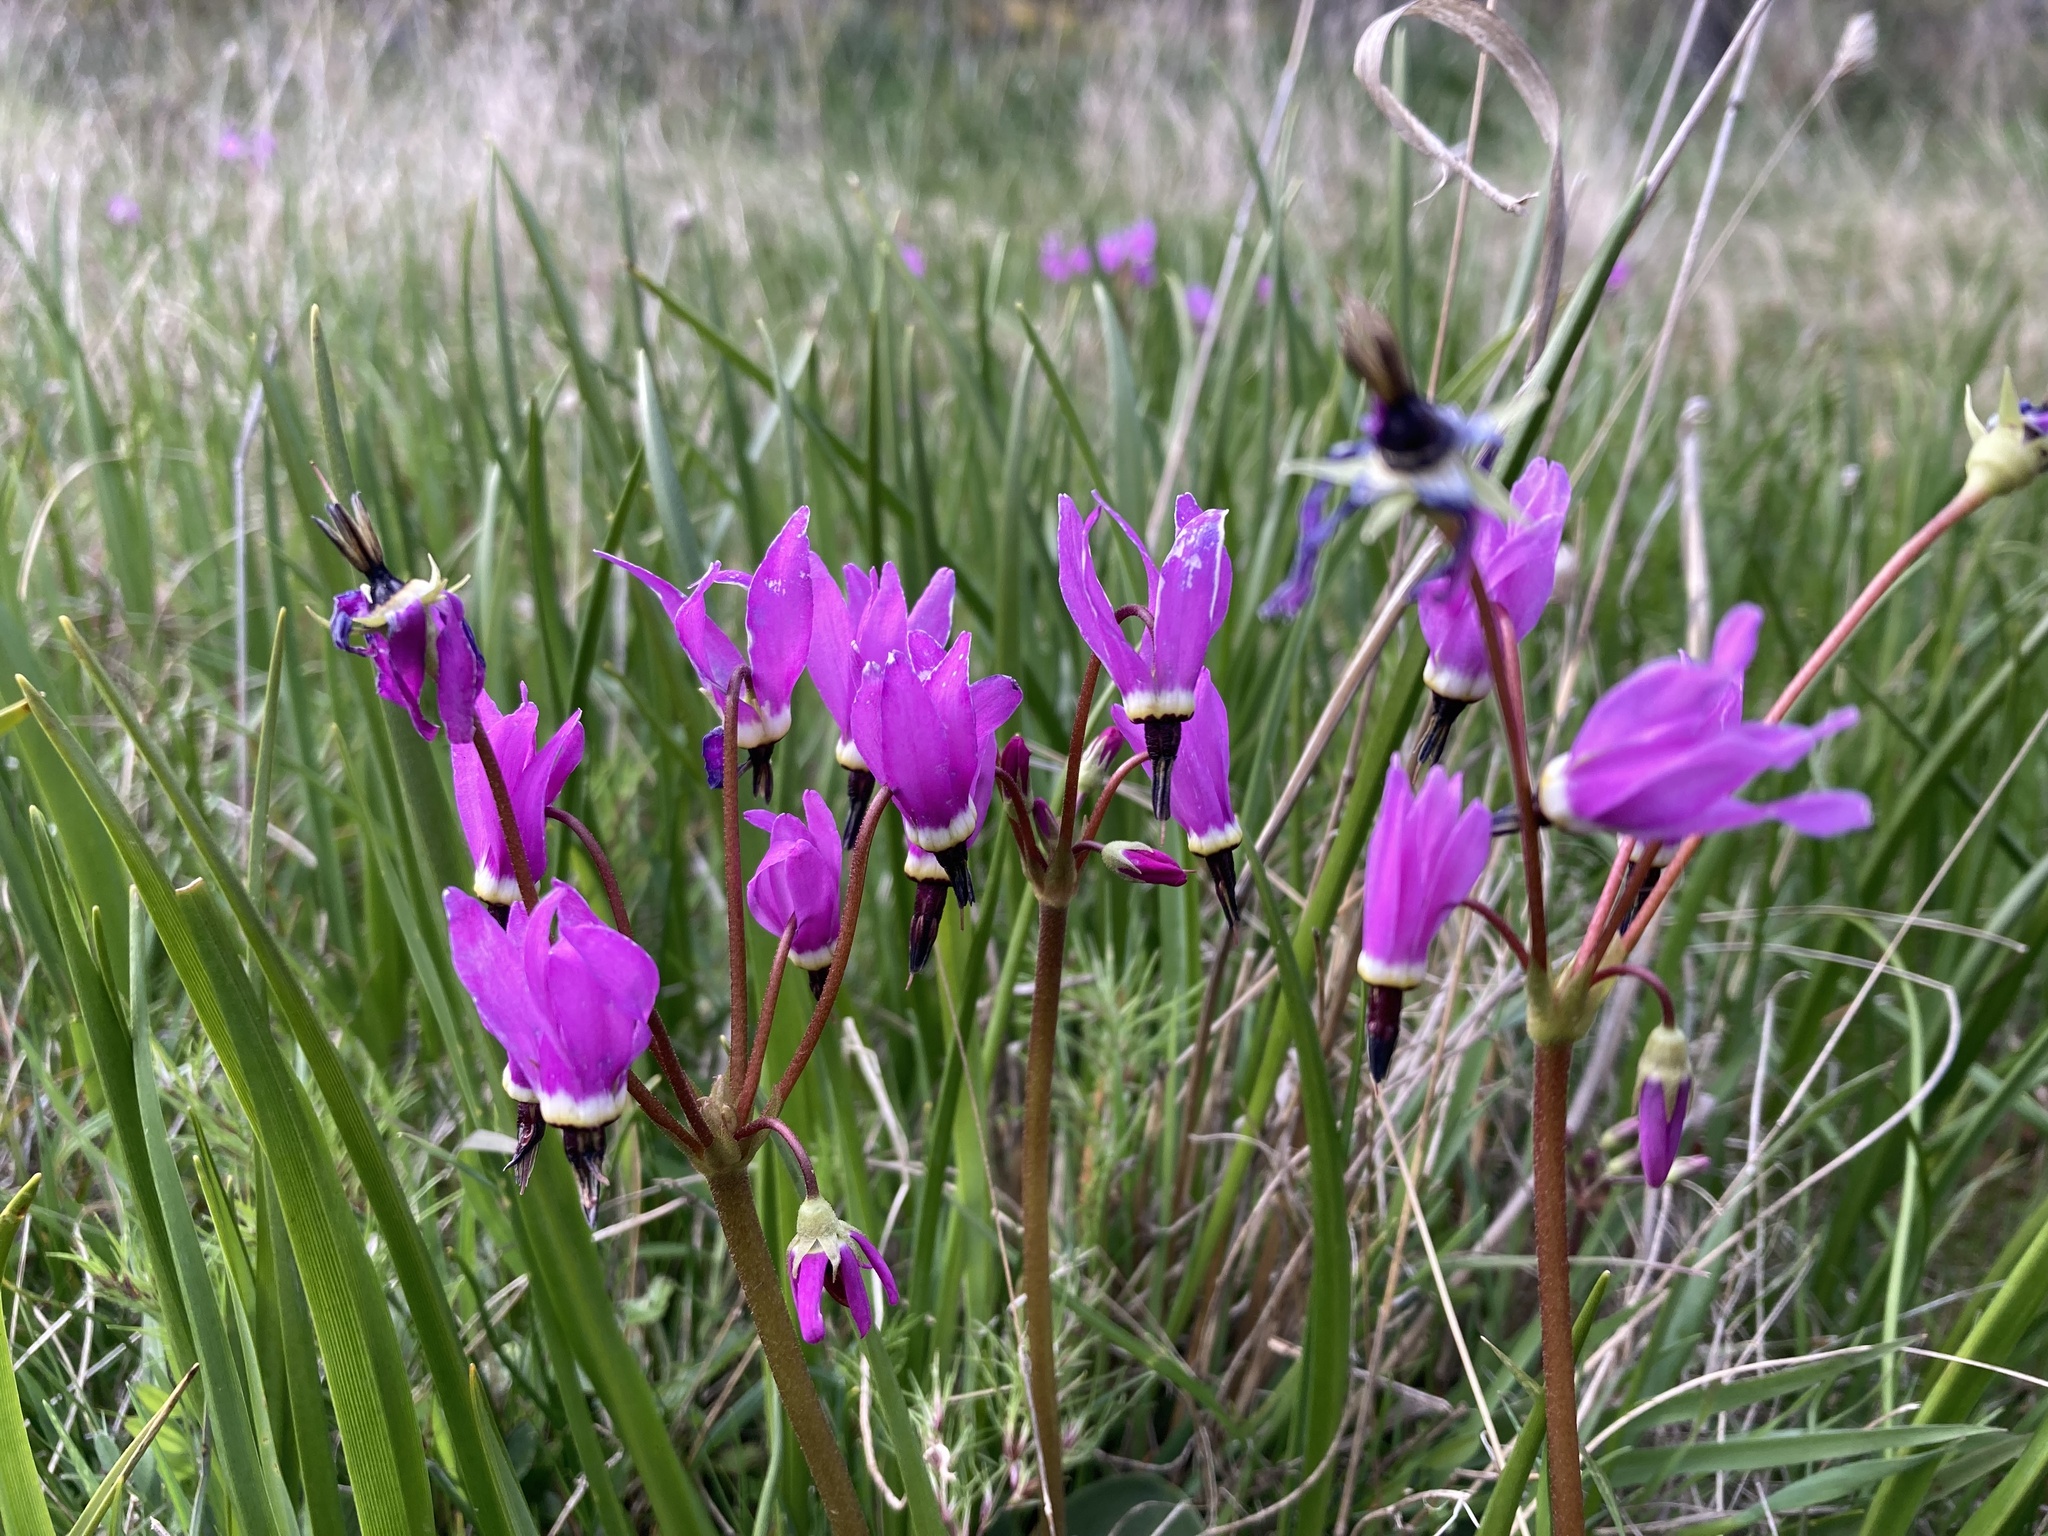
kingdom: Plantae
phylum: Tracheophyta
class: Magnoliopsida
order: Ericales
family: Primulaceae
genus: Dodecatheon
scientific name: Dodecatheon hendersonii
